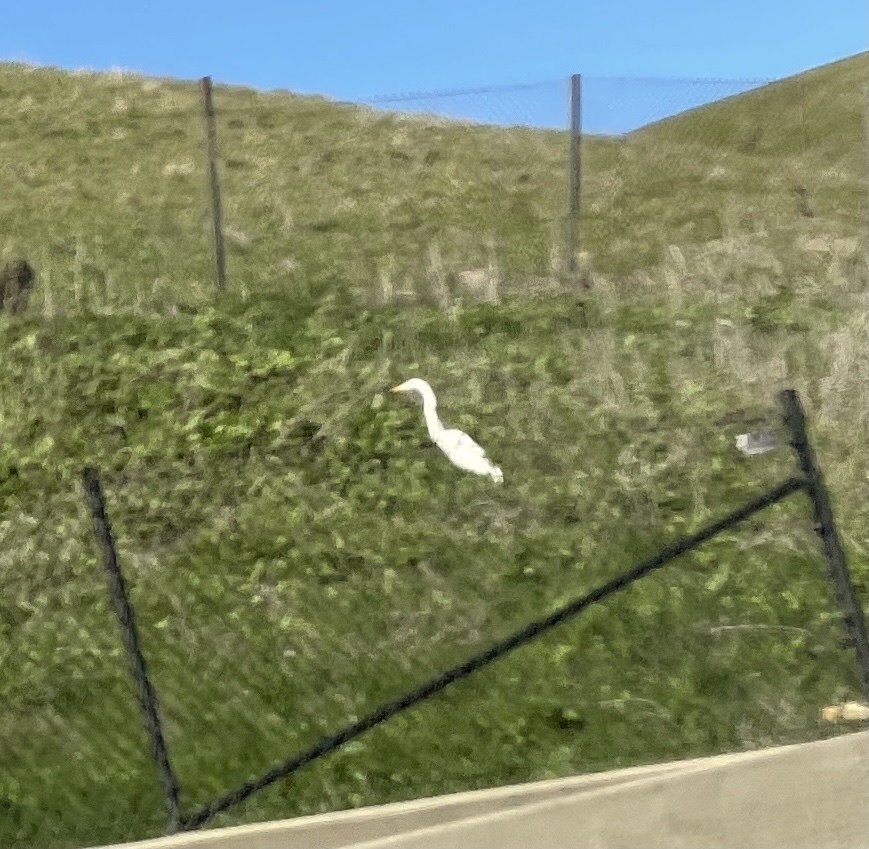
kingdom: Animalia
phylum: Chordata
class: Aves
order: Pelecaniformes
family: Ardeidae
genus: Ardea
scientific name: Ardea alba
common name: Great egret
